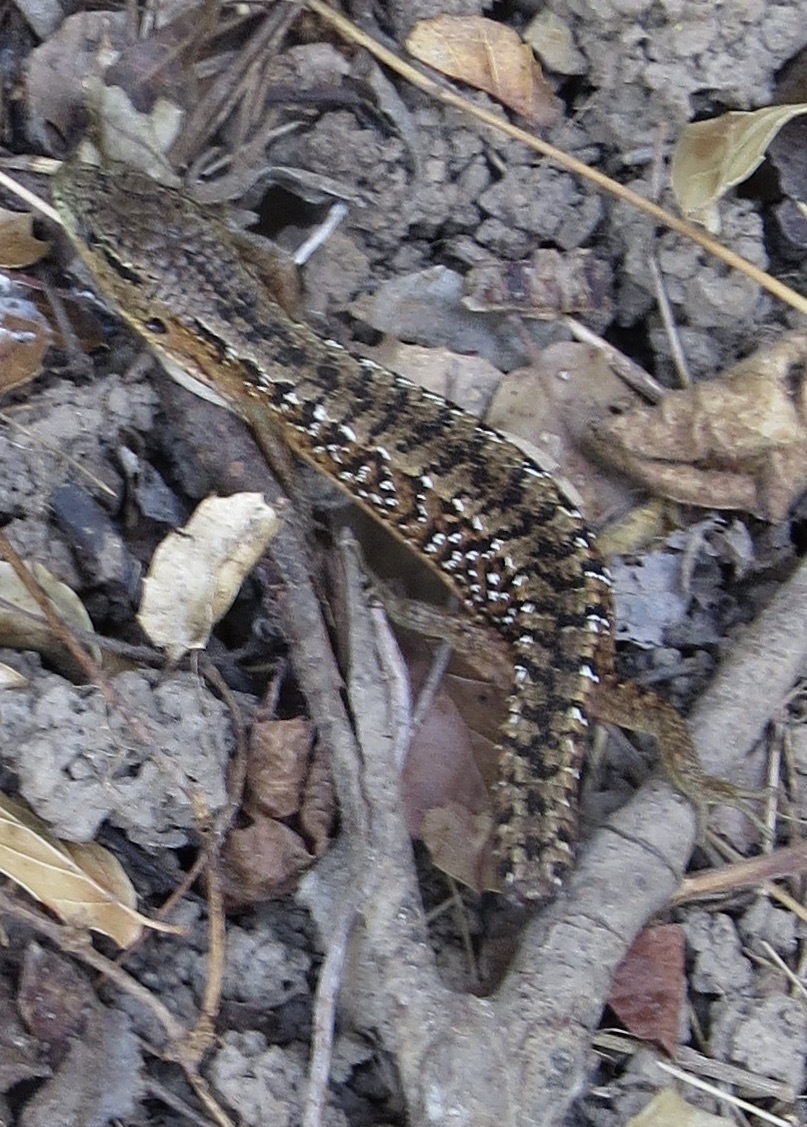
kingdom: Animalia
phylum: Chordata
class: Squamata
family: Anguidae
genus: Elgaria
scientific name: Elgaria coerulea
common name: Northern alligator lizard
